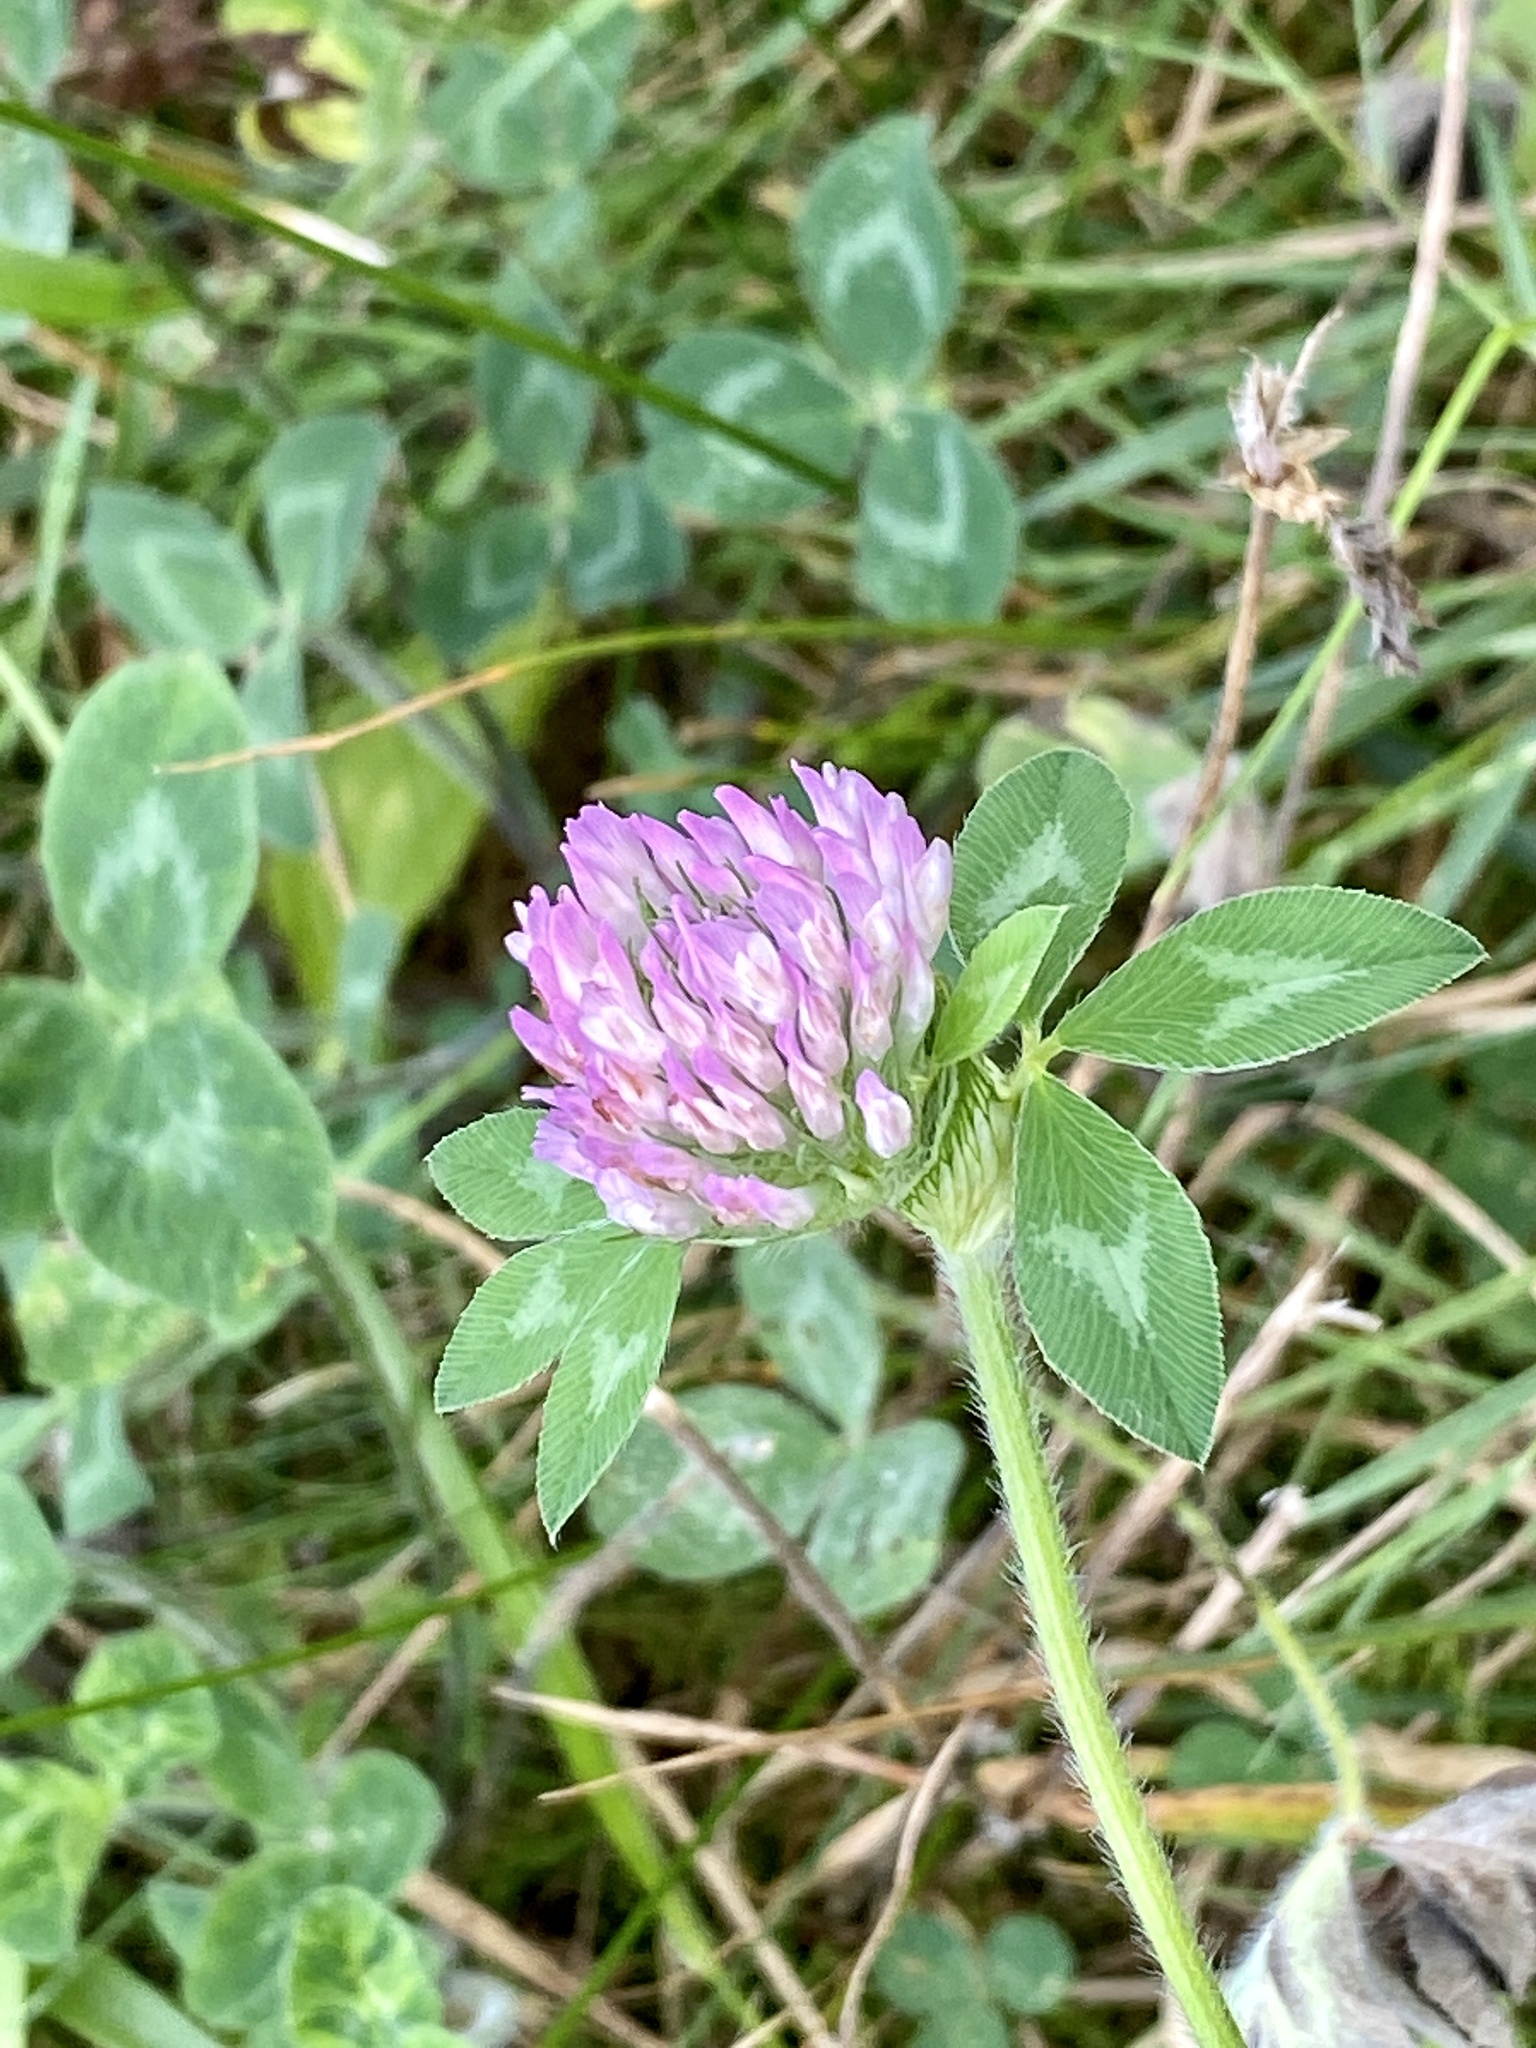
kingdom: Plantae
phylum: Tracheophyta
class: Magnoliopsida
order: Fabales
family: Fabaceae
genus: Trifolium
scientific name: Trifolium pratense
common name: Red clover
